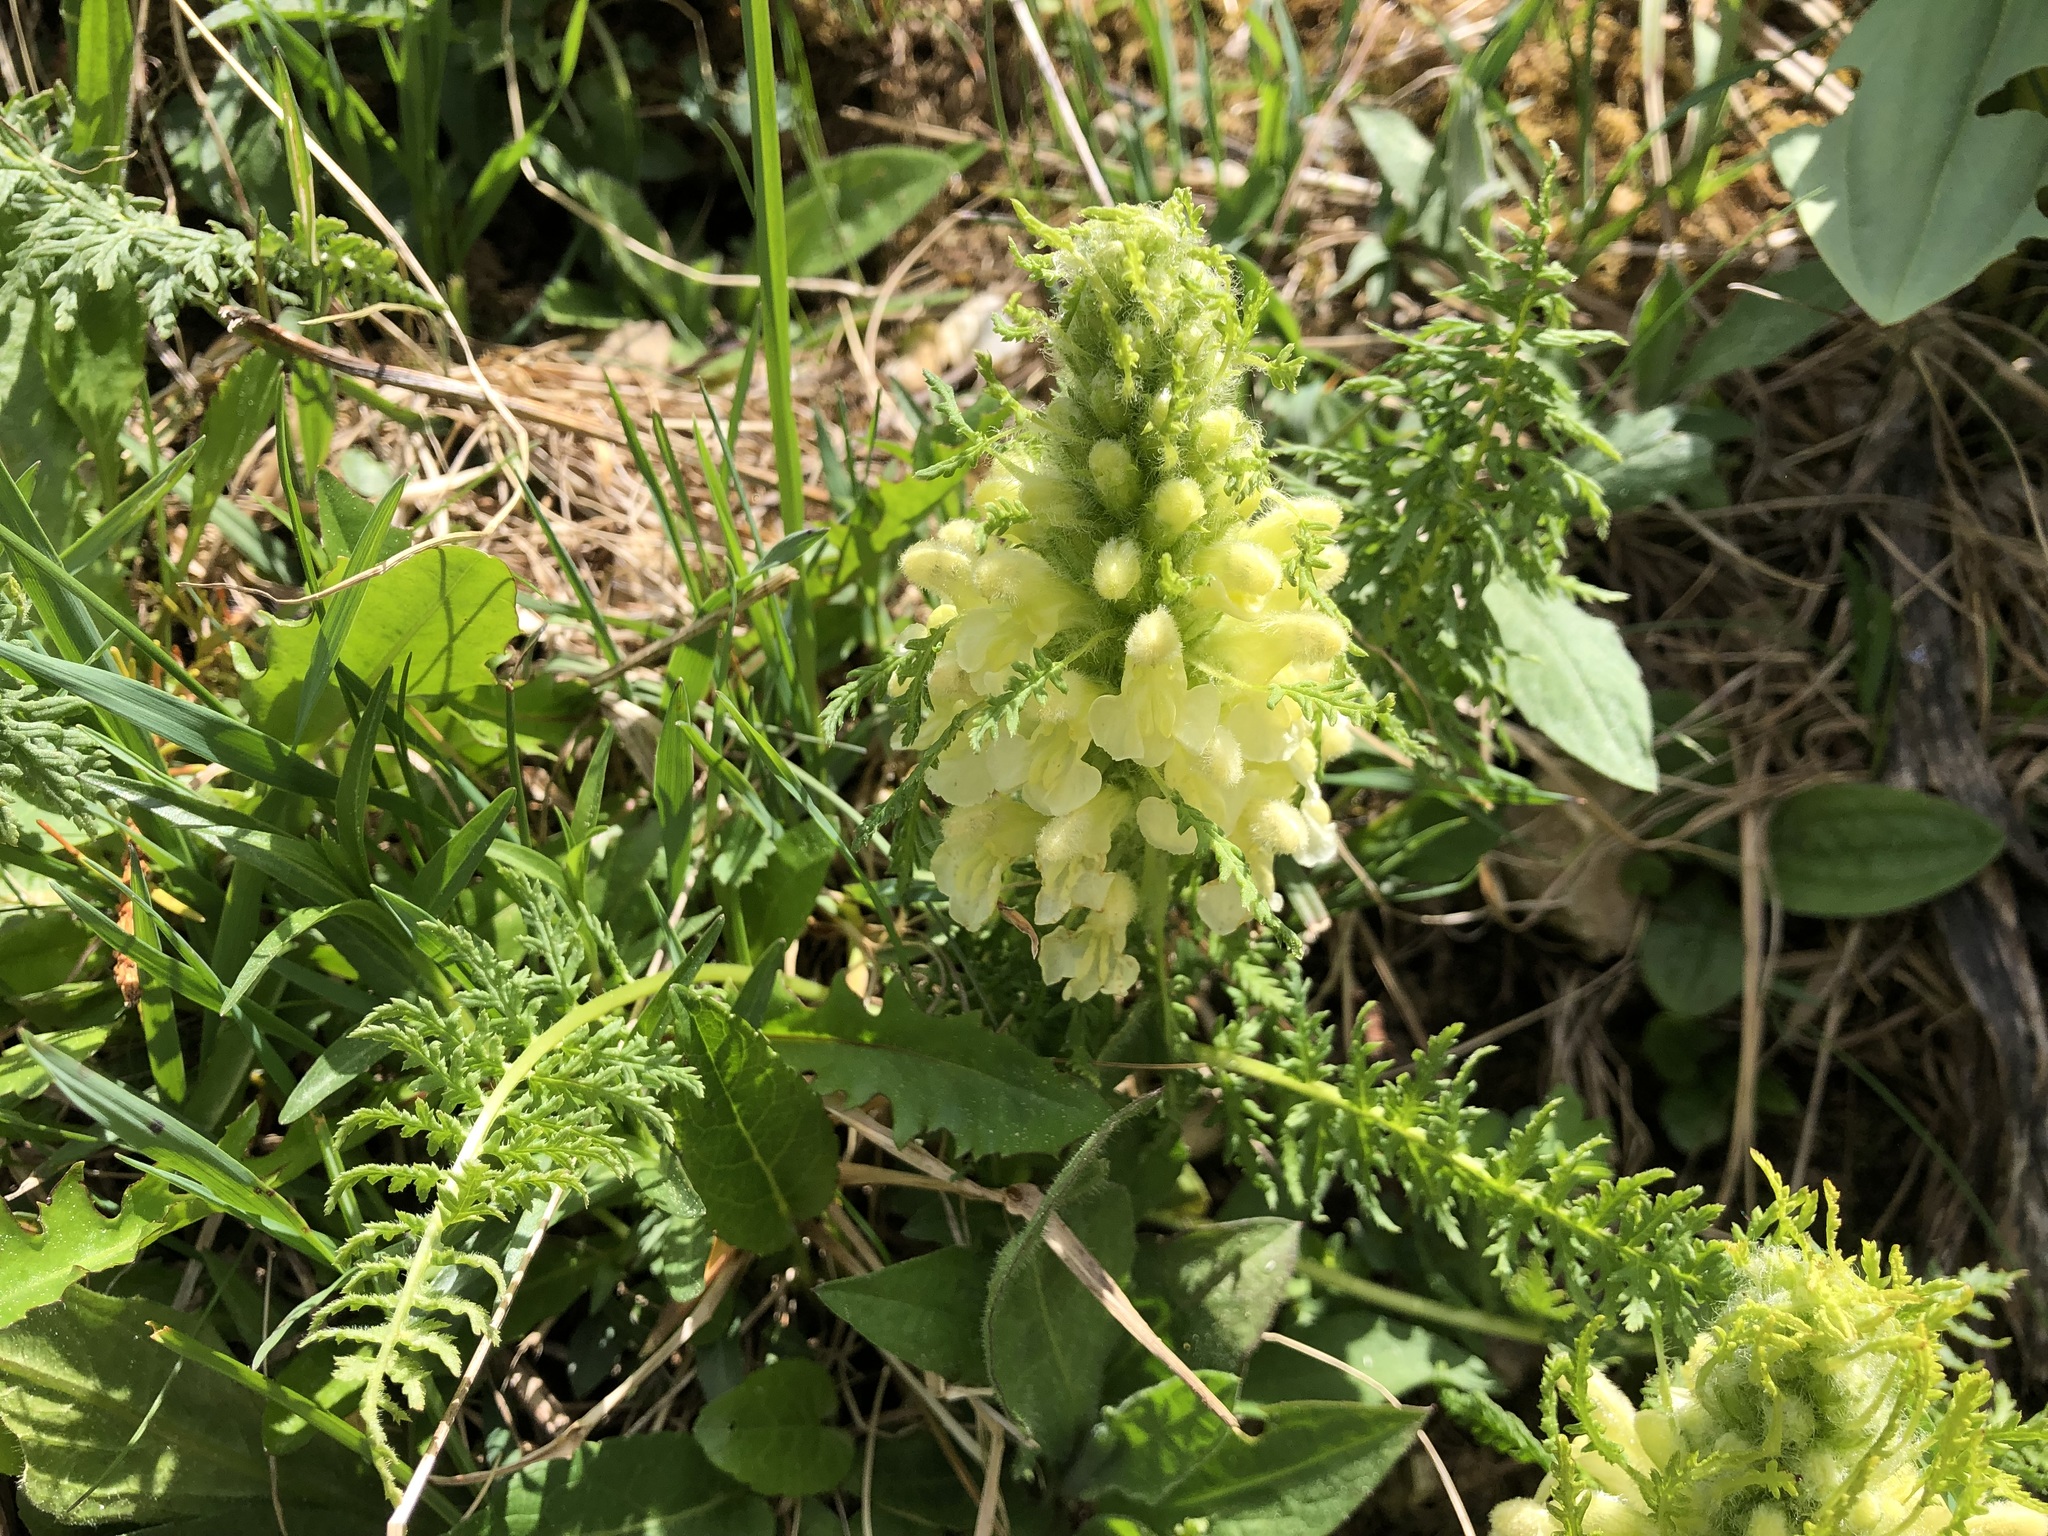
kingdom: Plantae
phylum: Tracheophyta
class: Magnoliopsida
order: Lamiales
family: Orobanchaceae
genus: Pedicularis
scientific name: Pedicularis foliosa
